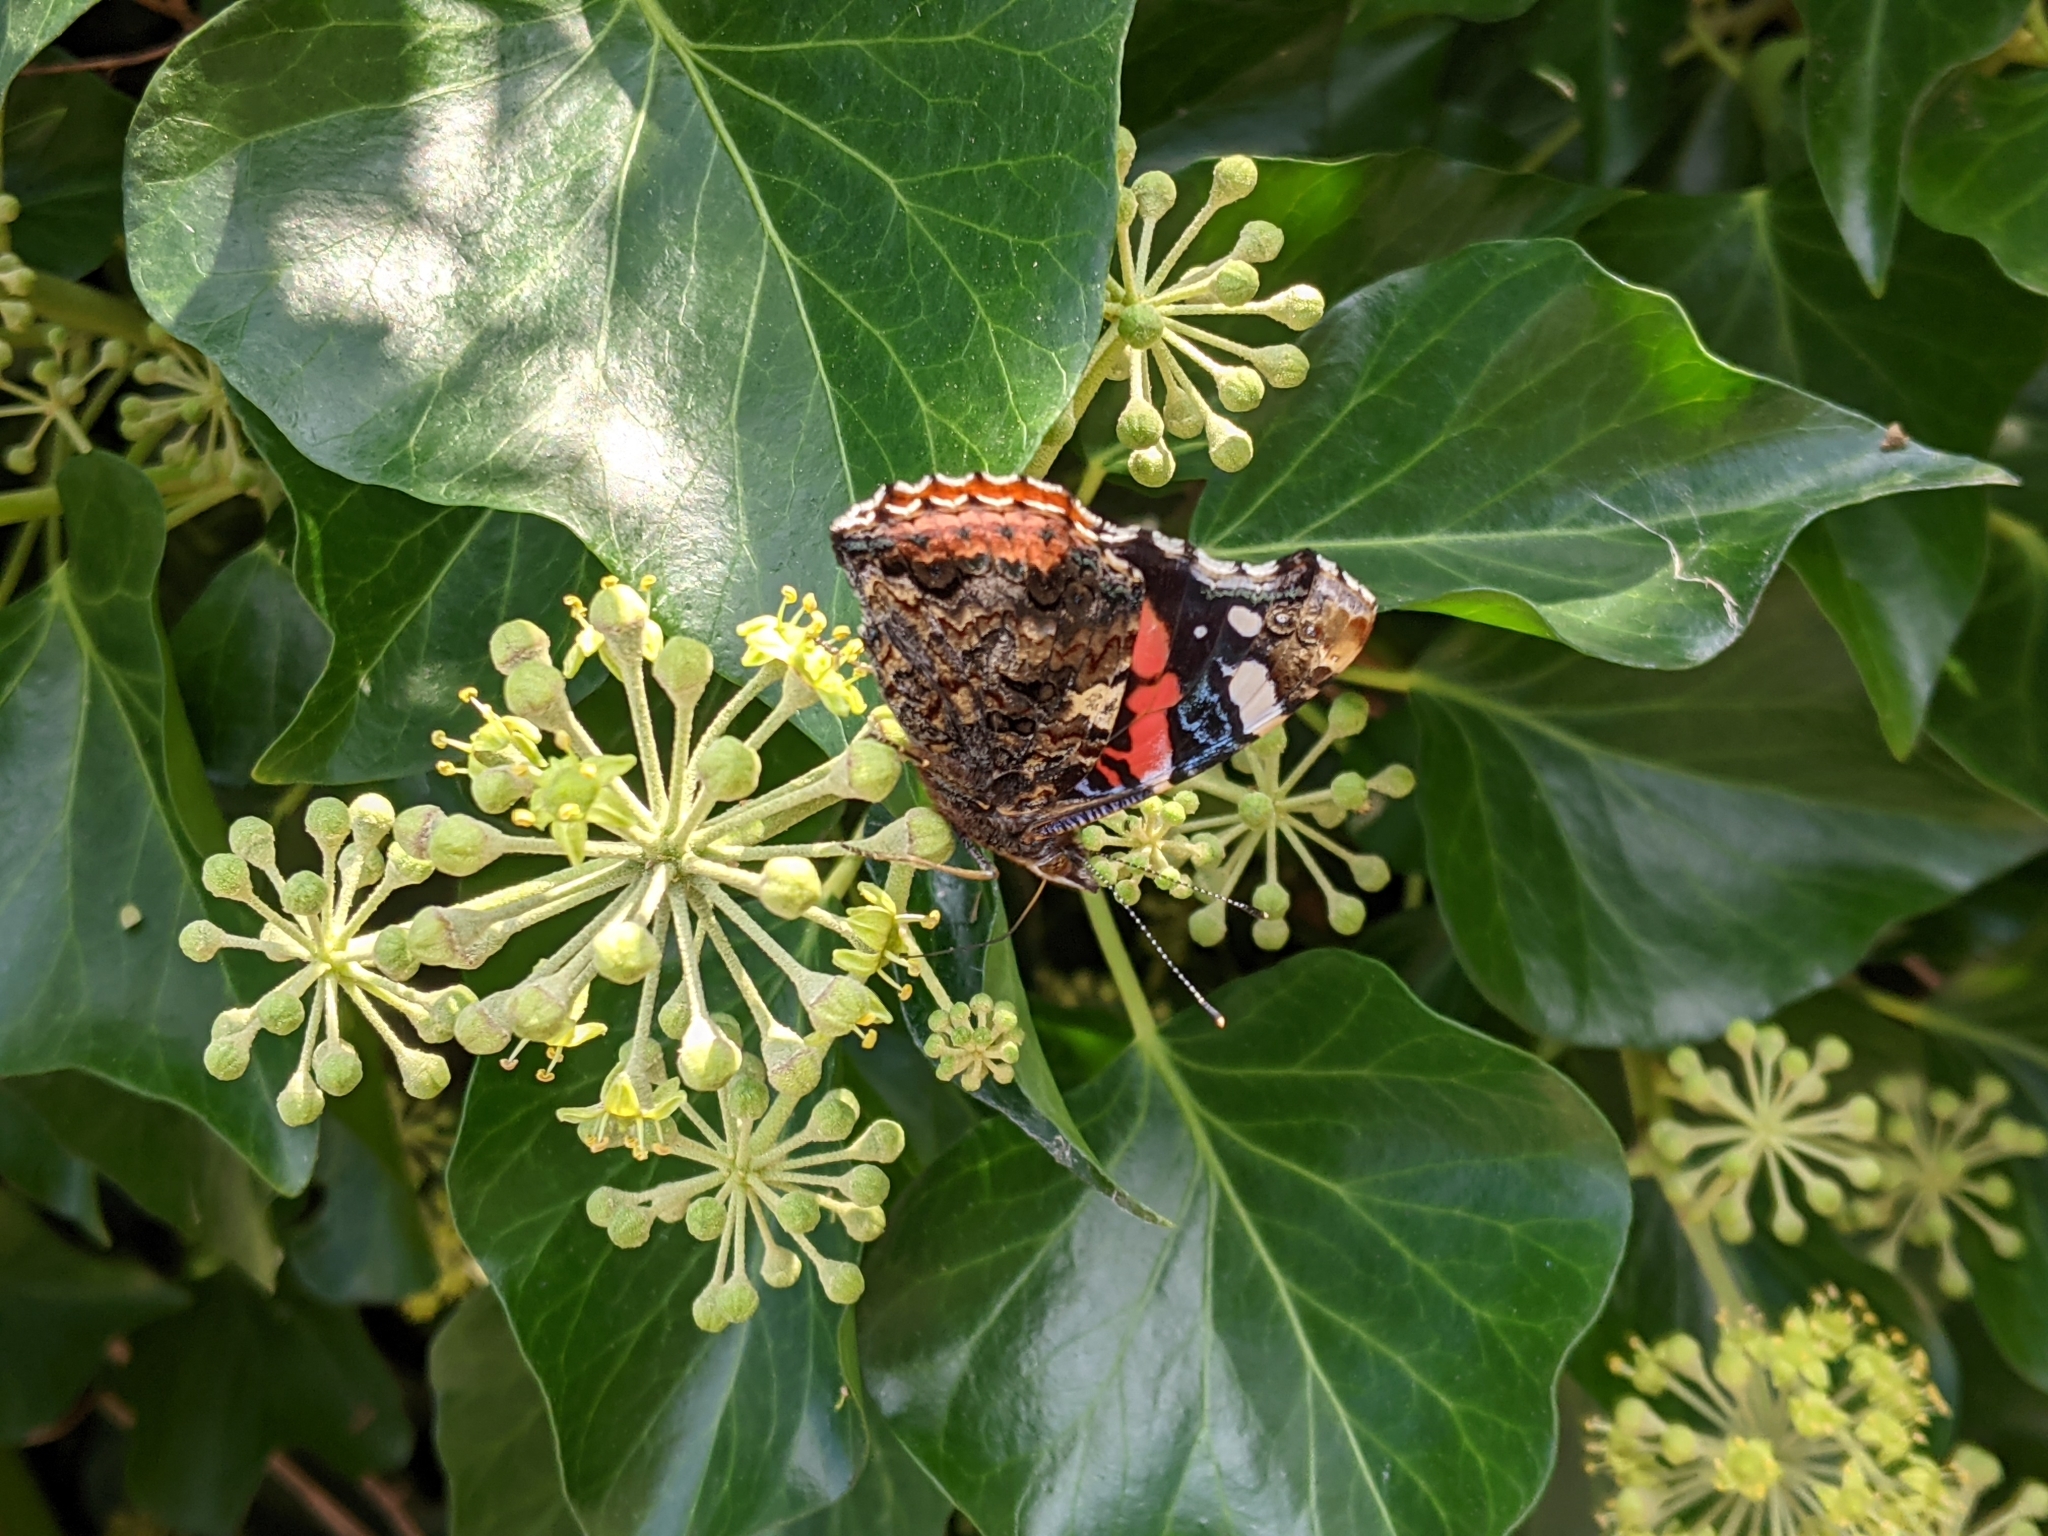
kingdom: Animalia
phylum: Arthropoda
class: Insecta
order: Lepidoptera
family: Nymphalidae
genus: Vanessa
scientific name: Vanessa atalanta
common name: Red admiral
